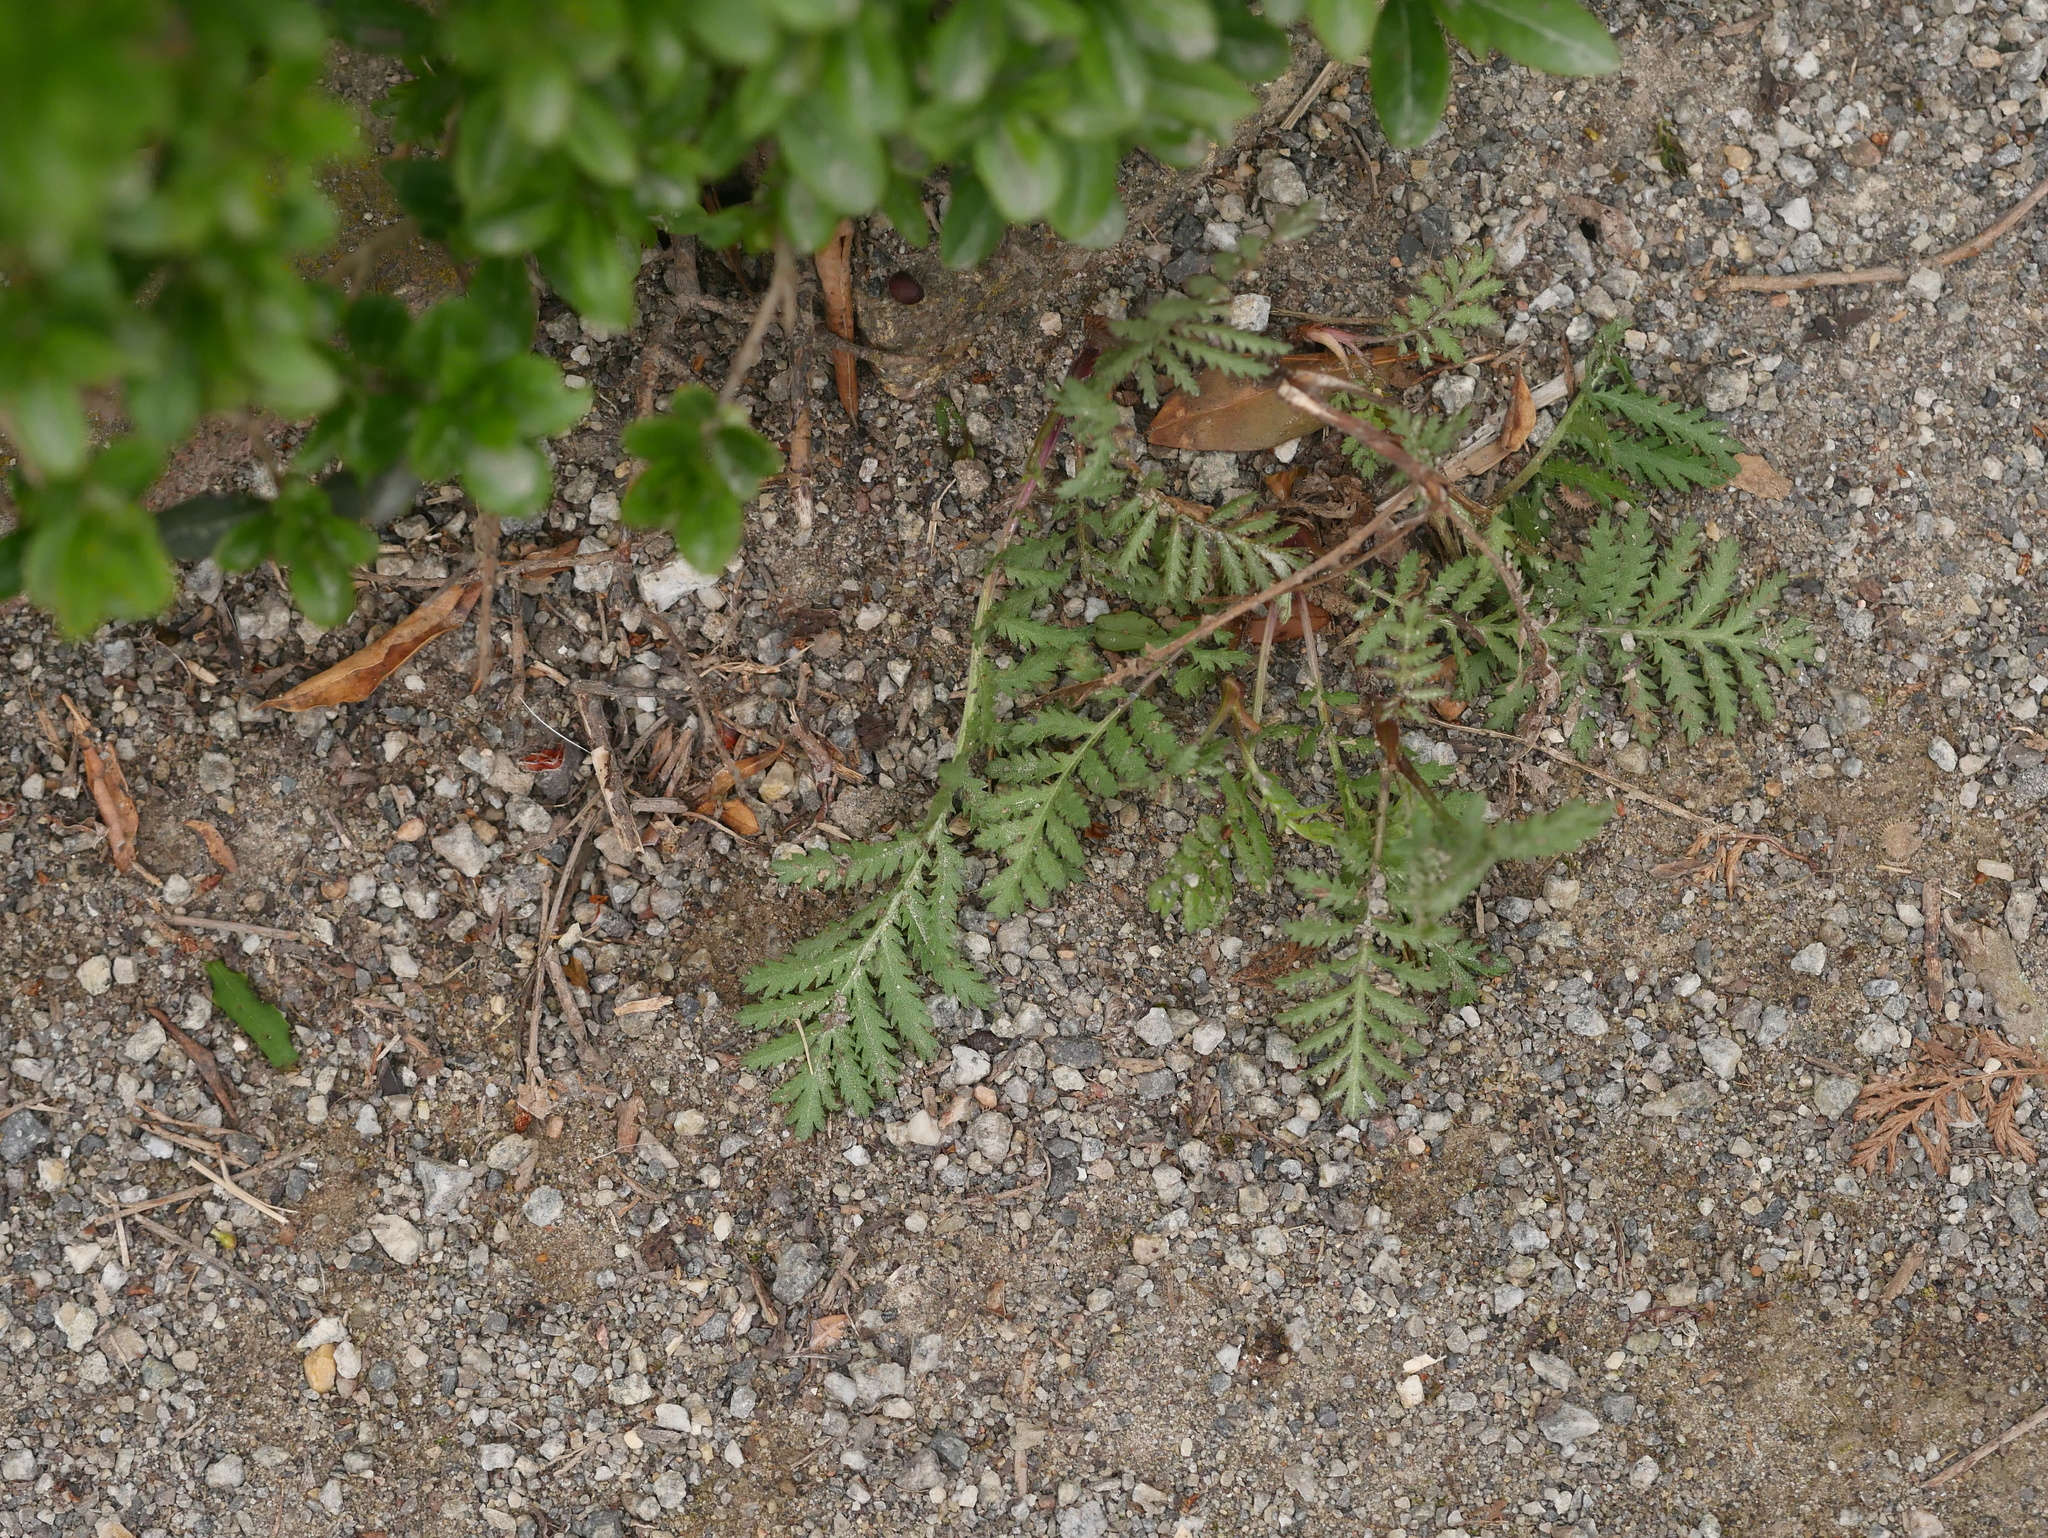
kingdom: Plantae
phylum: Tracheophyta
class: Magnoliopsida
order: Asterales
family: Asteraceae
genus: Tanacetum
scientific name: Tanacetum vulgare
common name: Common tansy
